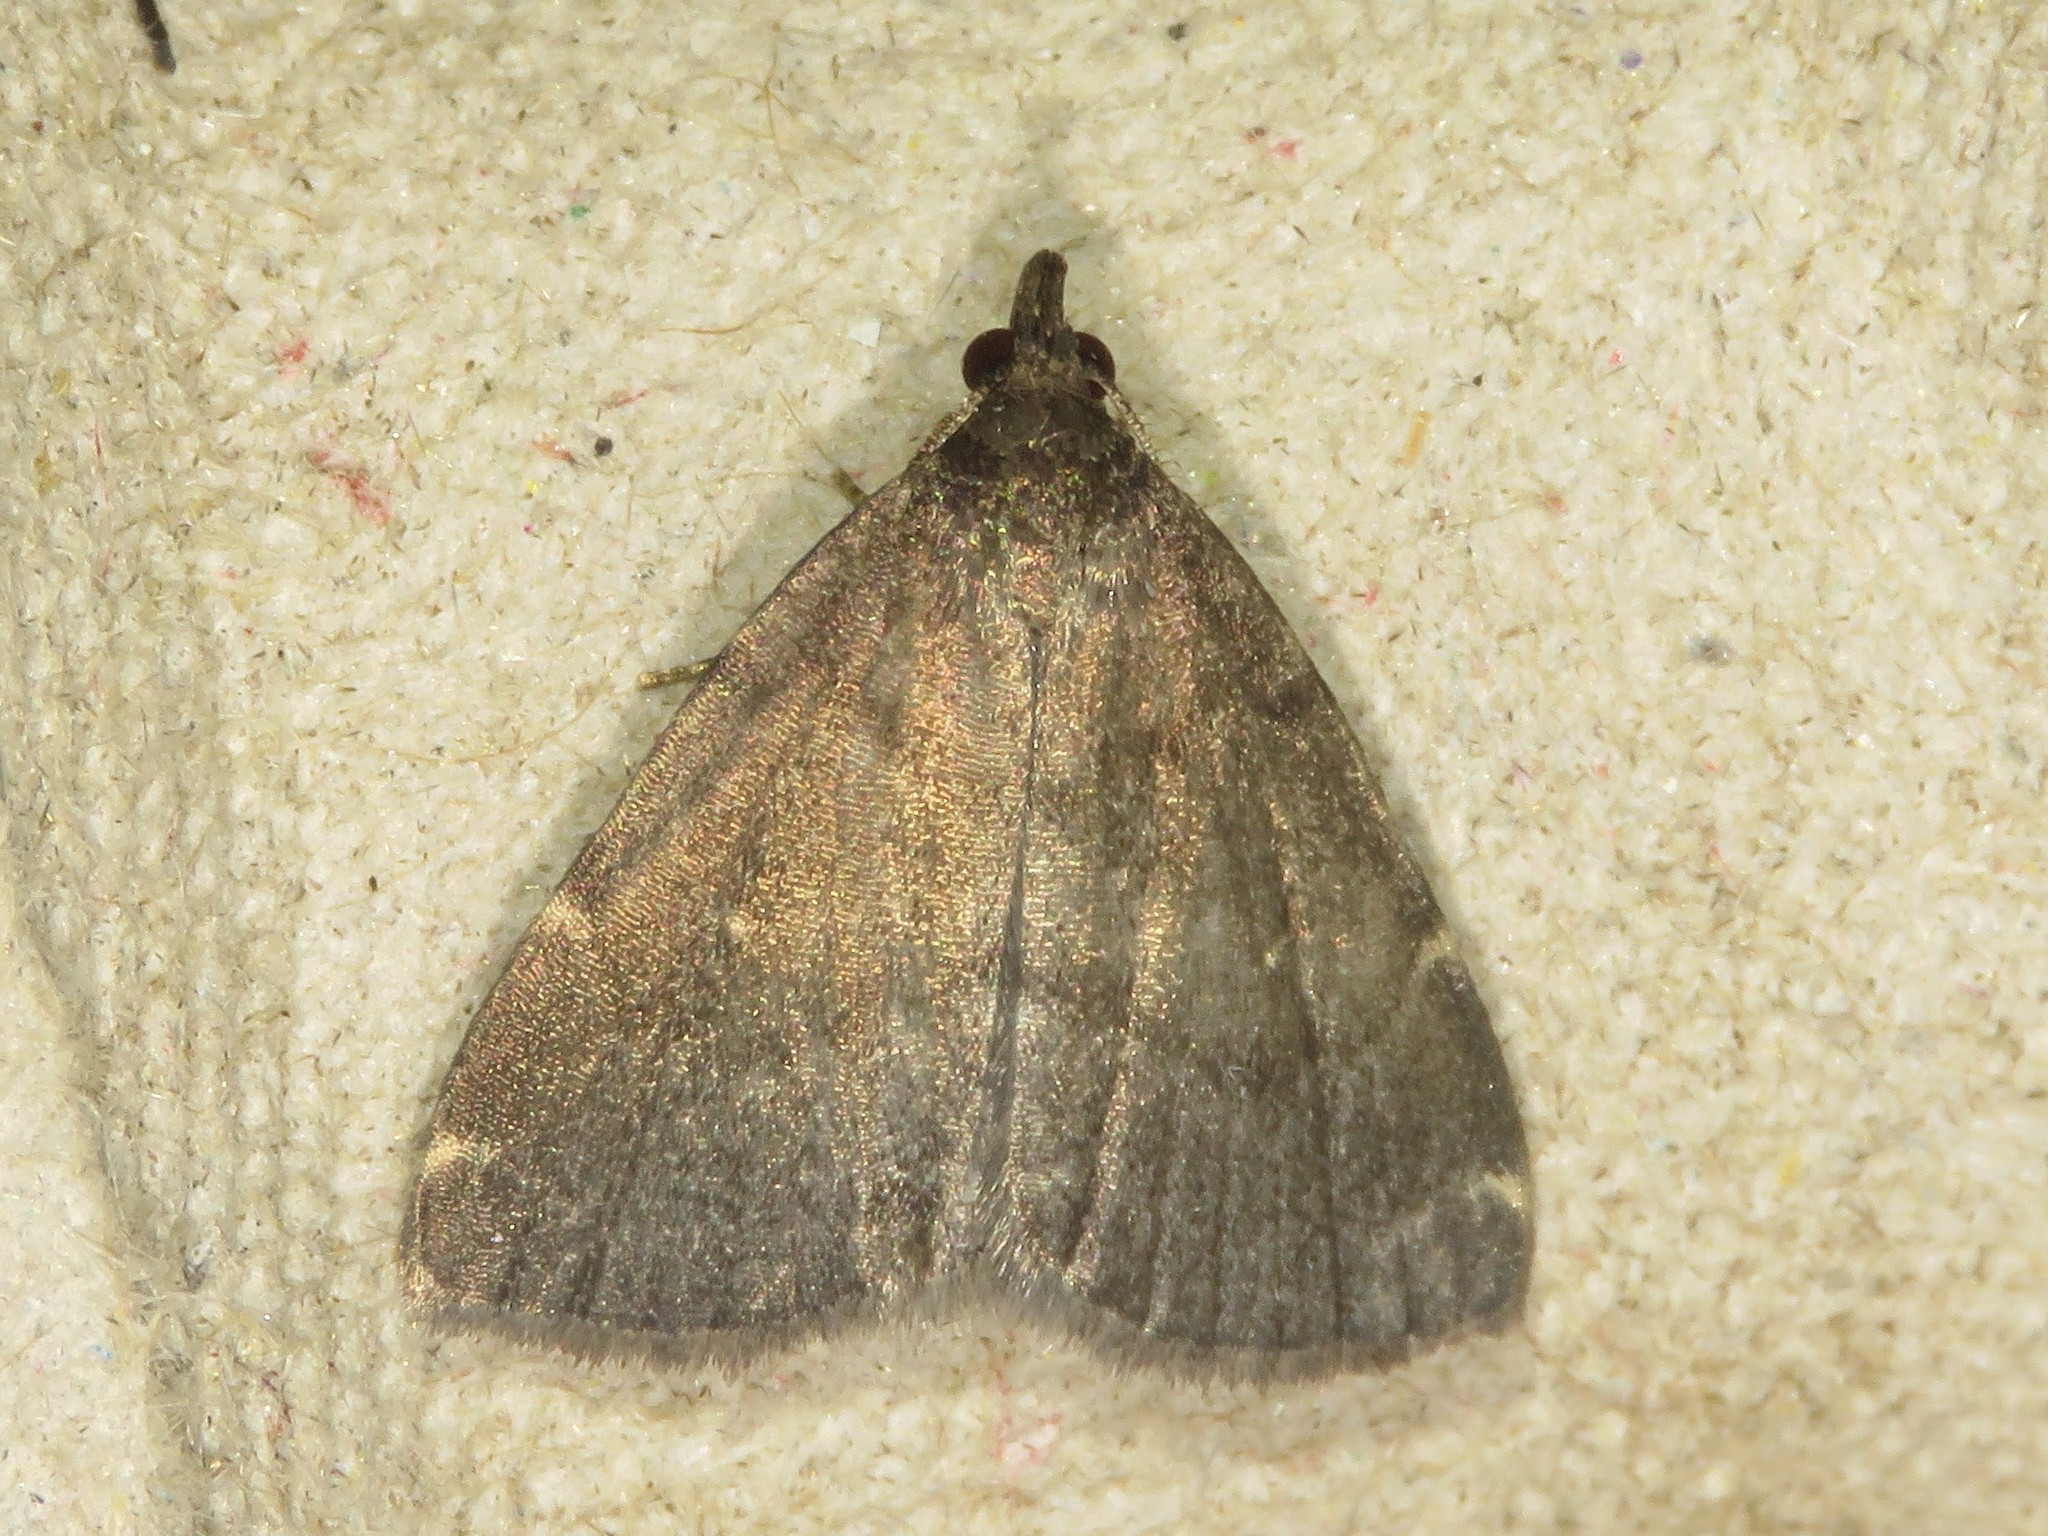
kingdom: Animalia
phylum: Arthropoda
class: Insecta
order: Lepidoptera
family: Erebidae
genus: Idia
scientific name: Idia rotundalis
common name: Rotund idia moth
